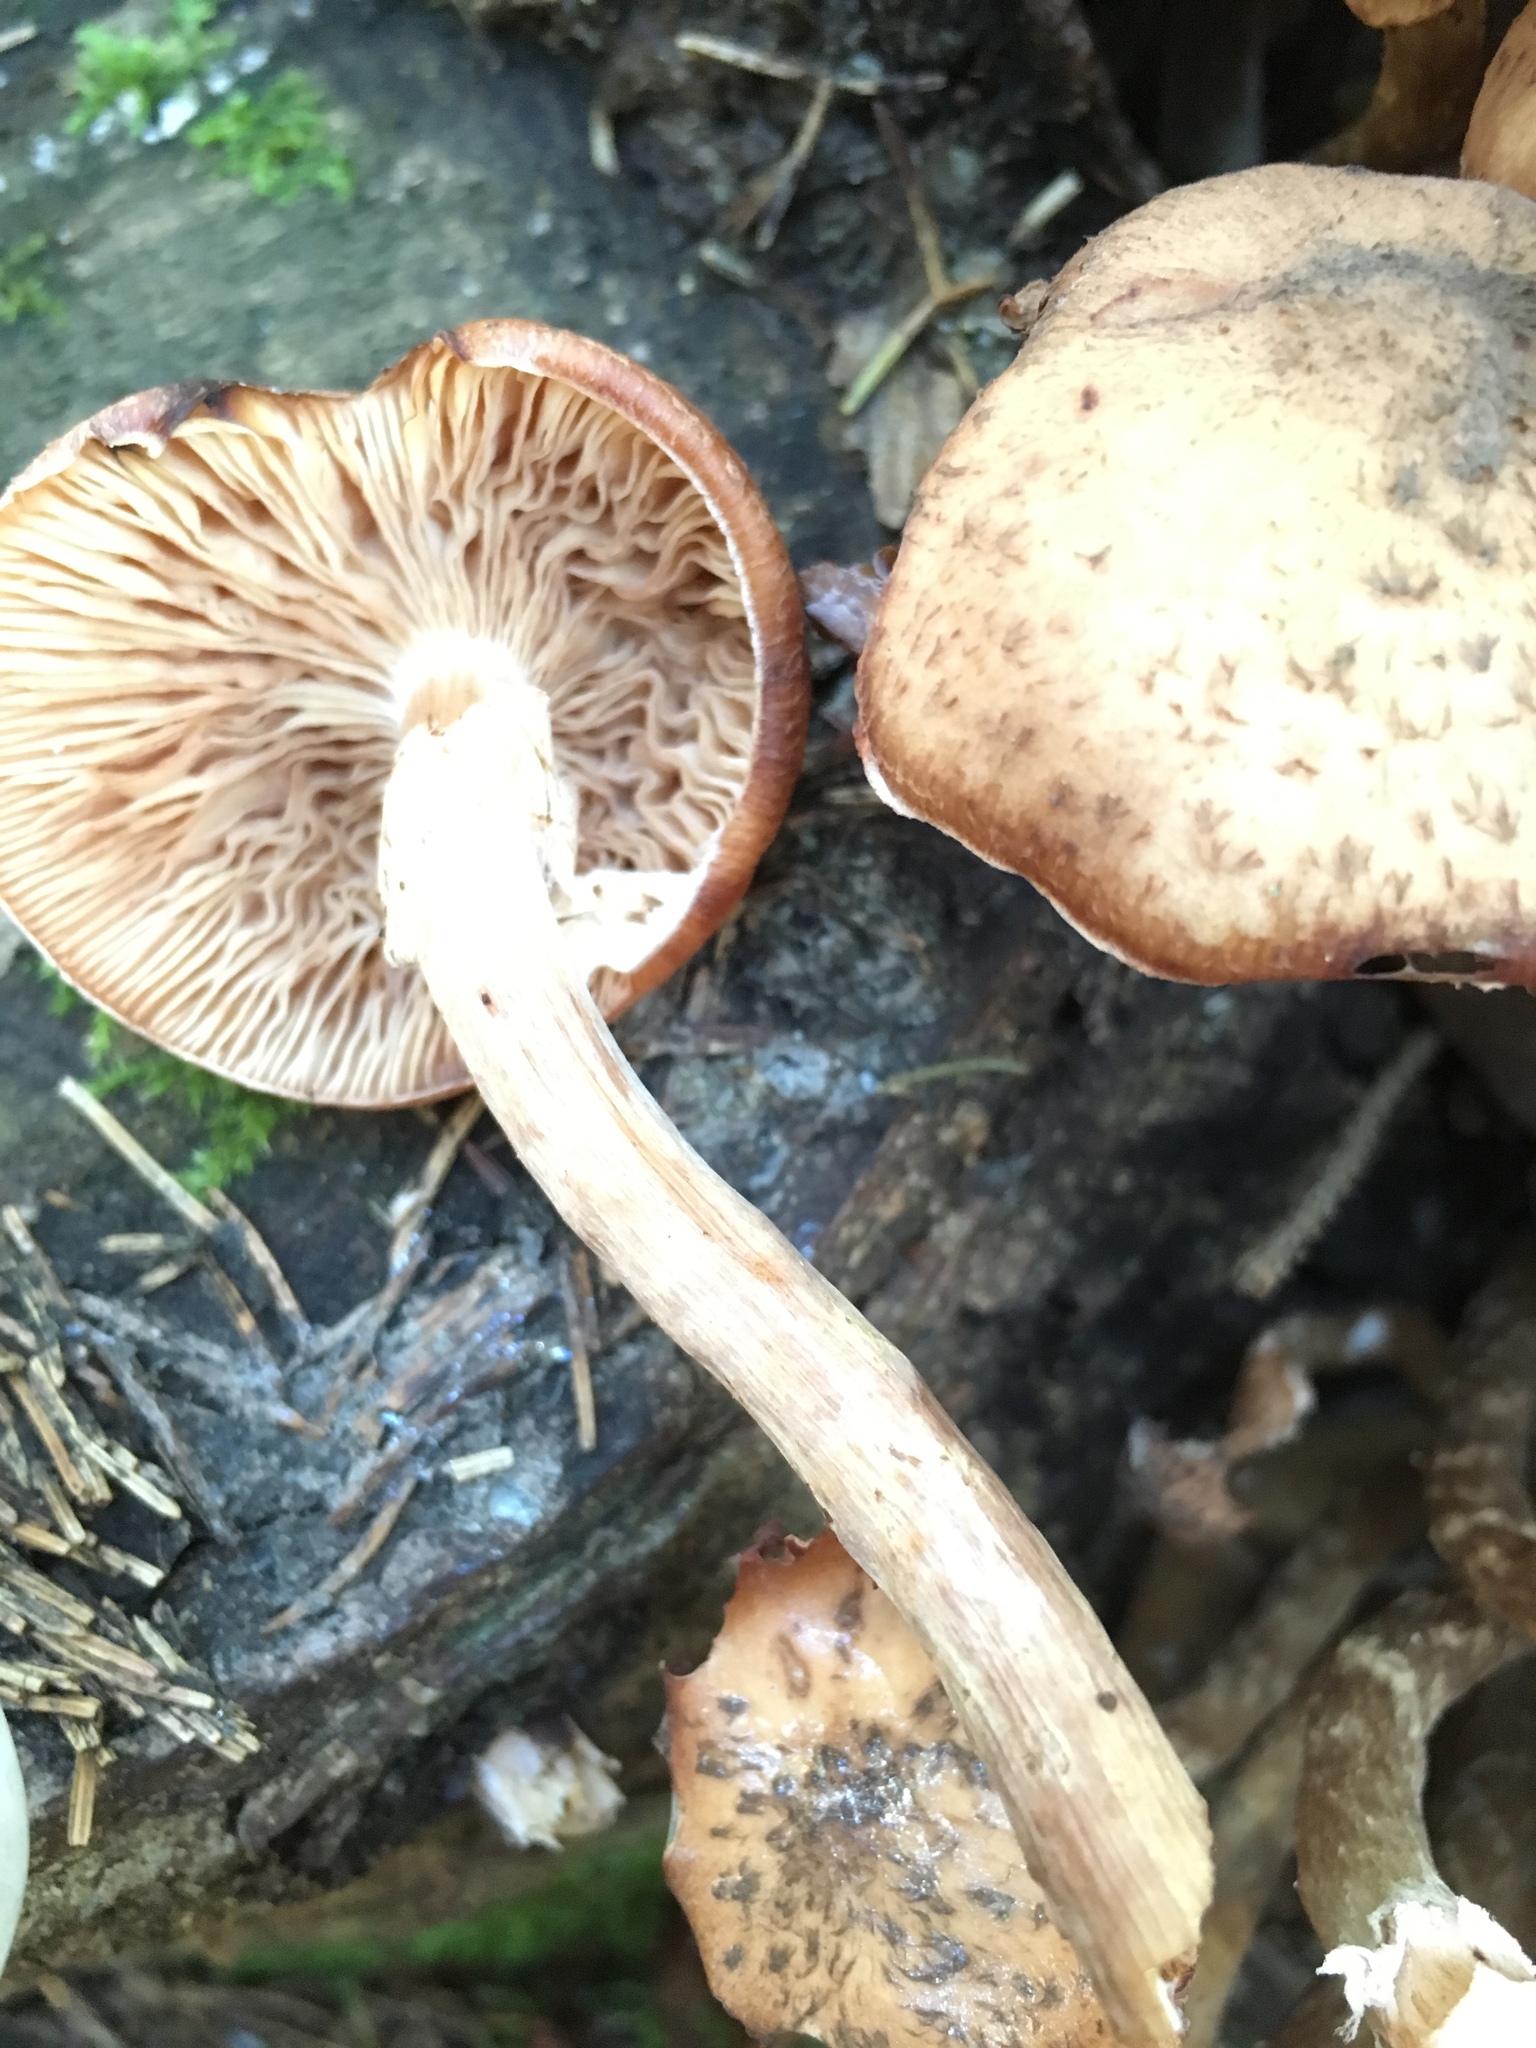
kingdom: Fungi
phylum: Basidiomycota
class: Agaricomycetes
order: Agaricales
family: Physalacriaceae
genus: Armillaria
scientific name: Armillaria ostoyae
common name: Dark honey fungus
